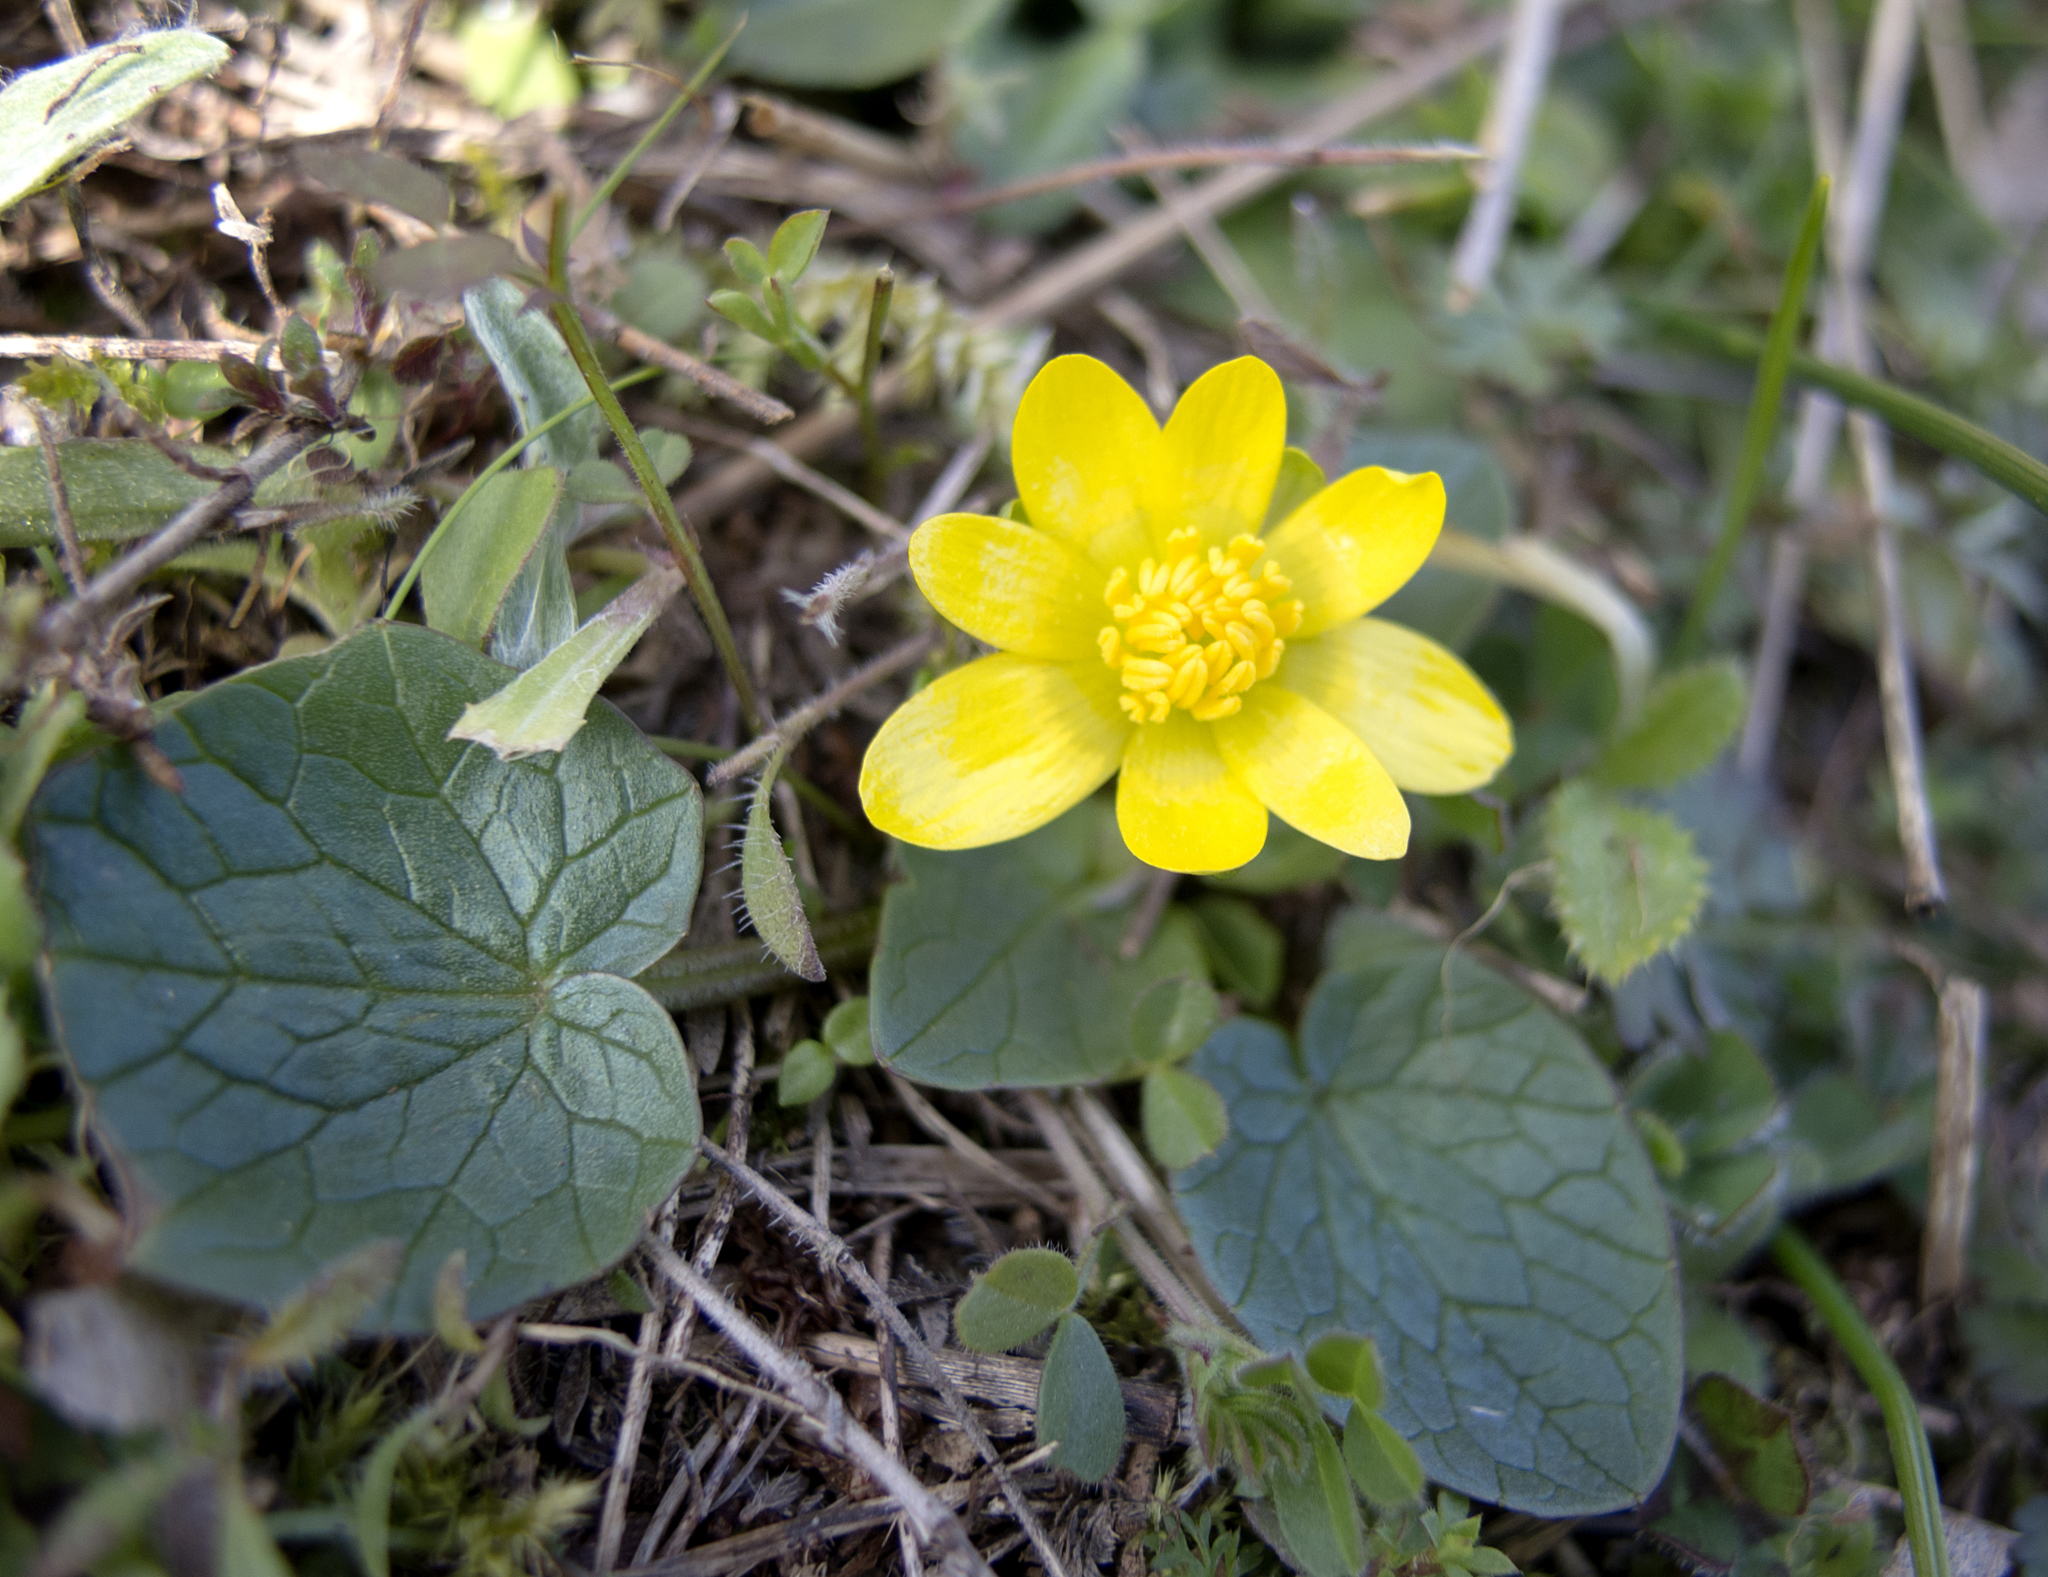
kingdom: Plantae
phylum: Tracheophyta
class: Magnoliopsida
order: Ranunculales
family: Ranunculaceae
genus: Ficaria
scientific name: Ficaria verna
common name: Lesser celandine
